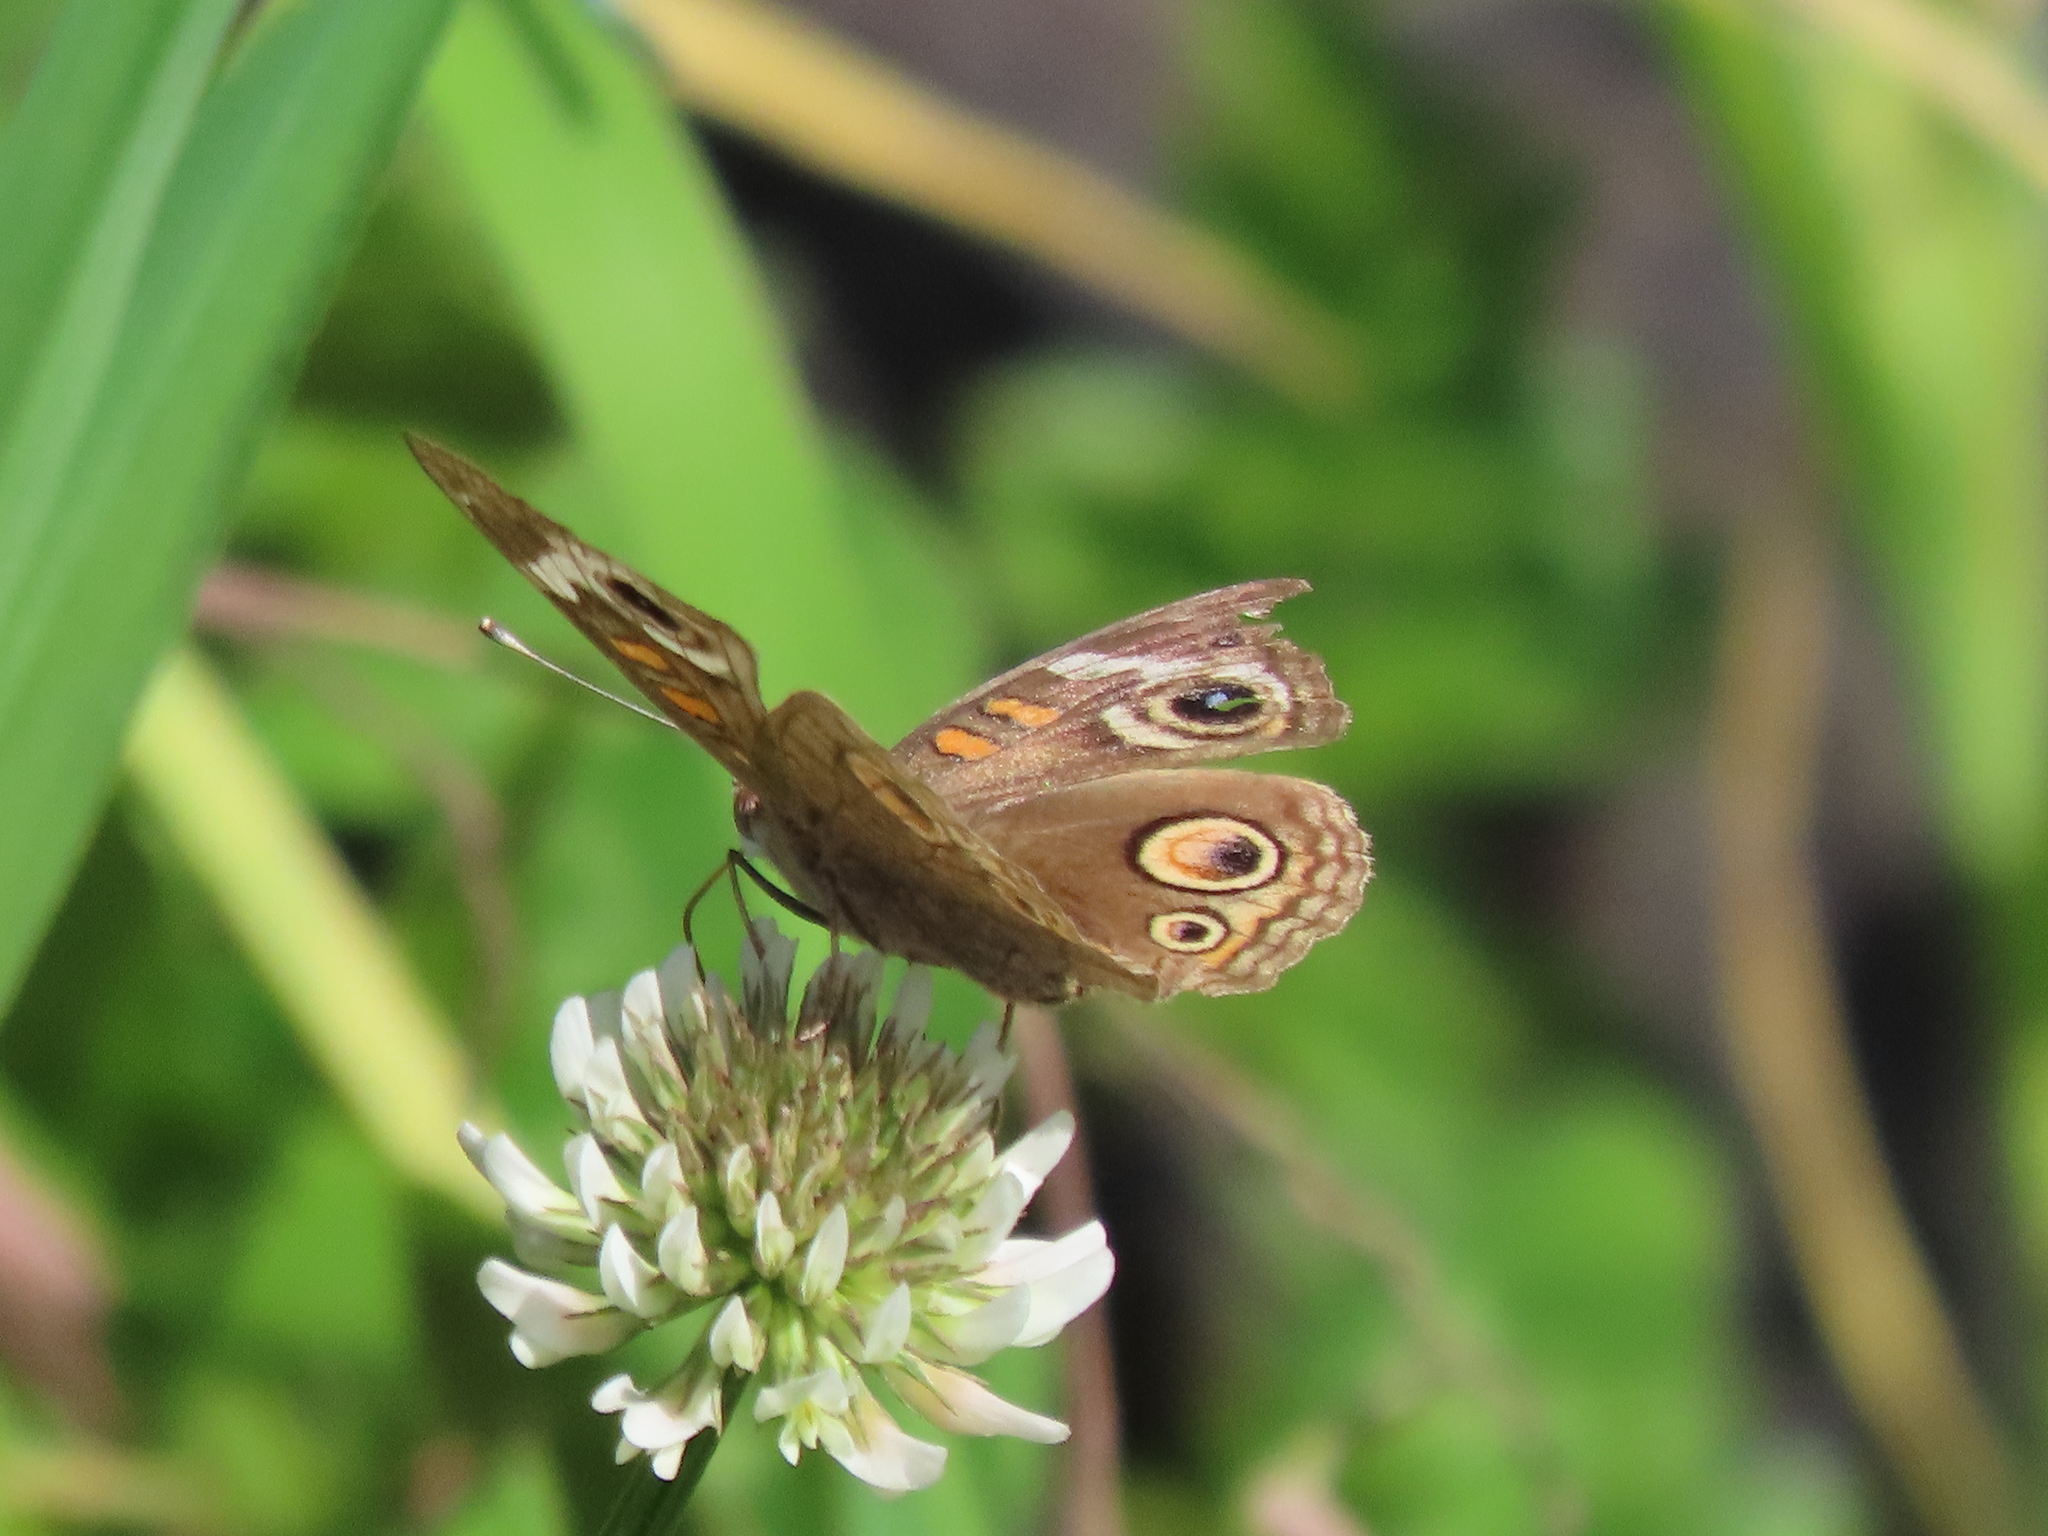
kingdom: Animalia
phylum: Arthropoda
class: Insecta
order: Lepidoptera
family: Nymphalidae
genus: Junonia
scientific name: Junonia grisea
